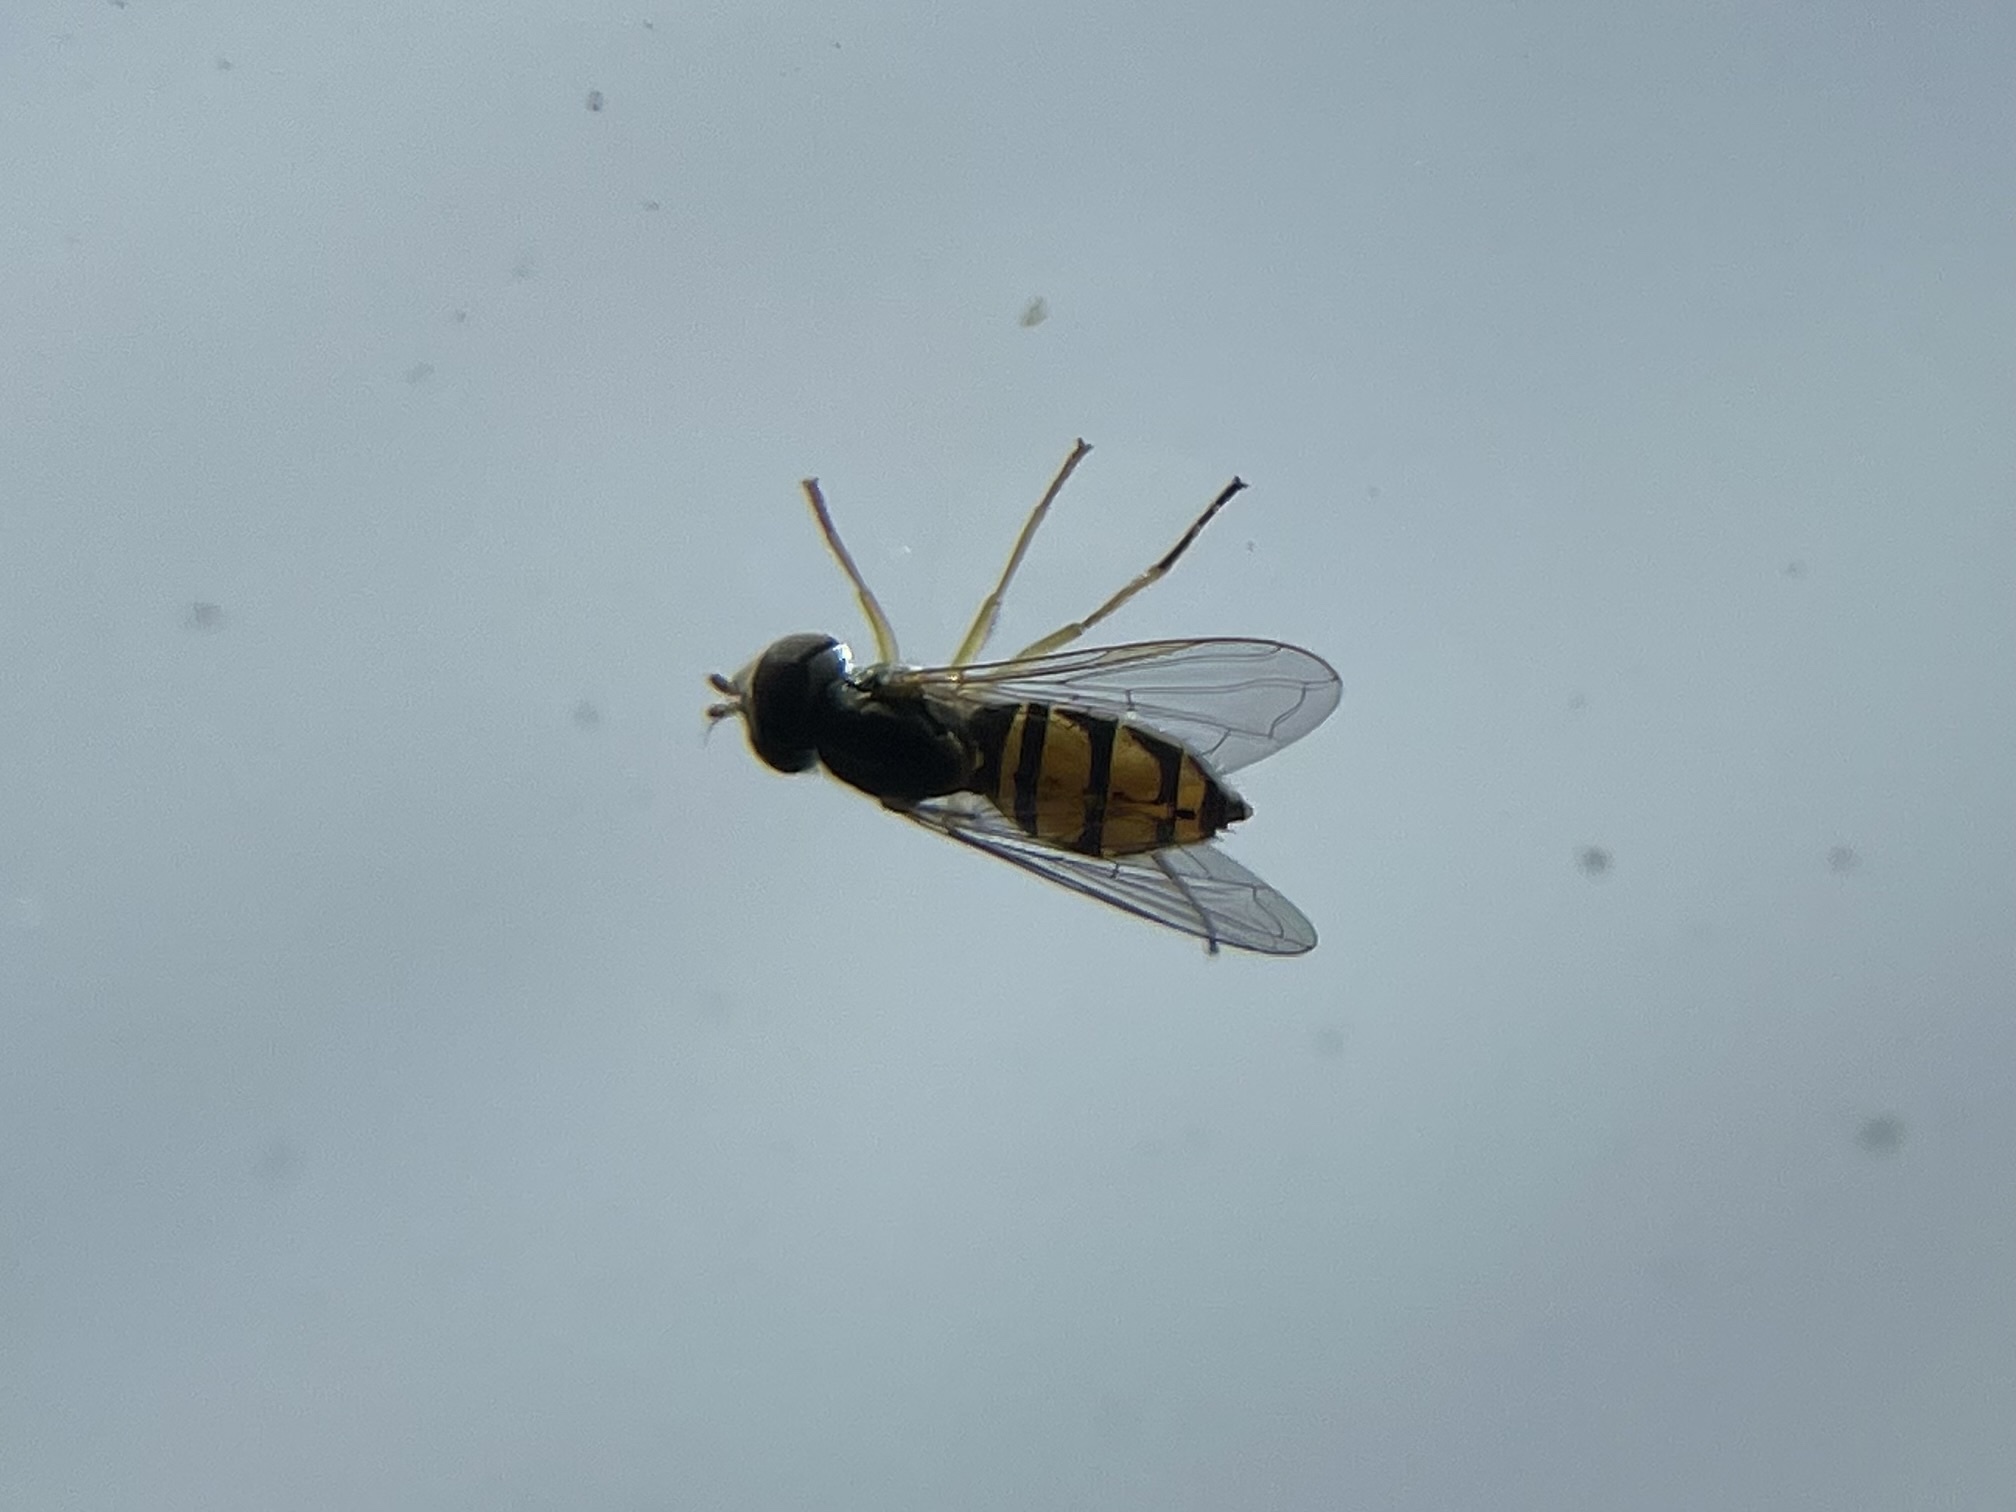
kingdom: Animalia
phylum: Arthropoda
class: Insecta
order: Diptera
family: Syrphidae
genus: Toxomerus
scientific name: Toxomerus marginatus
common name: Syrphid fly
